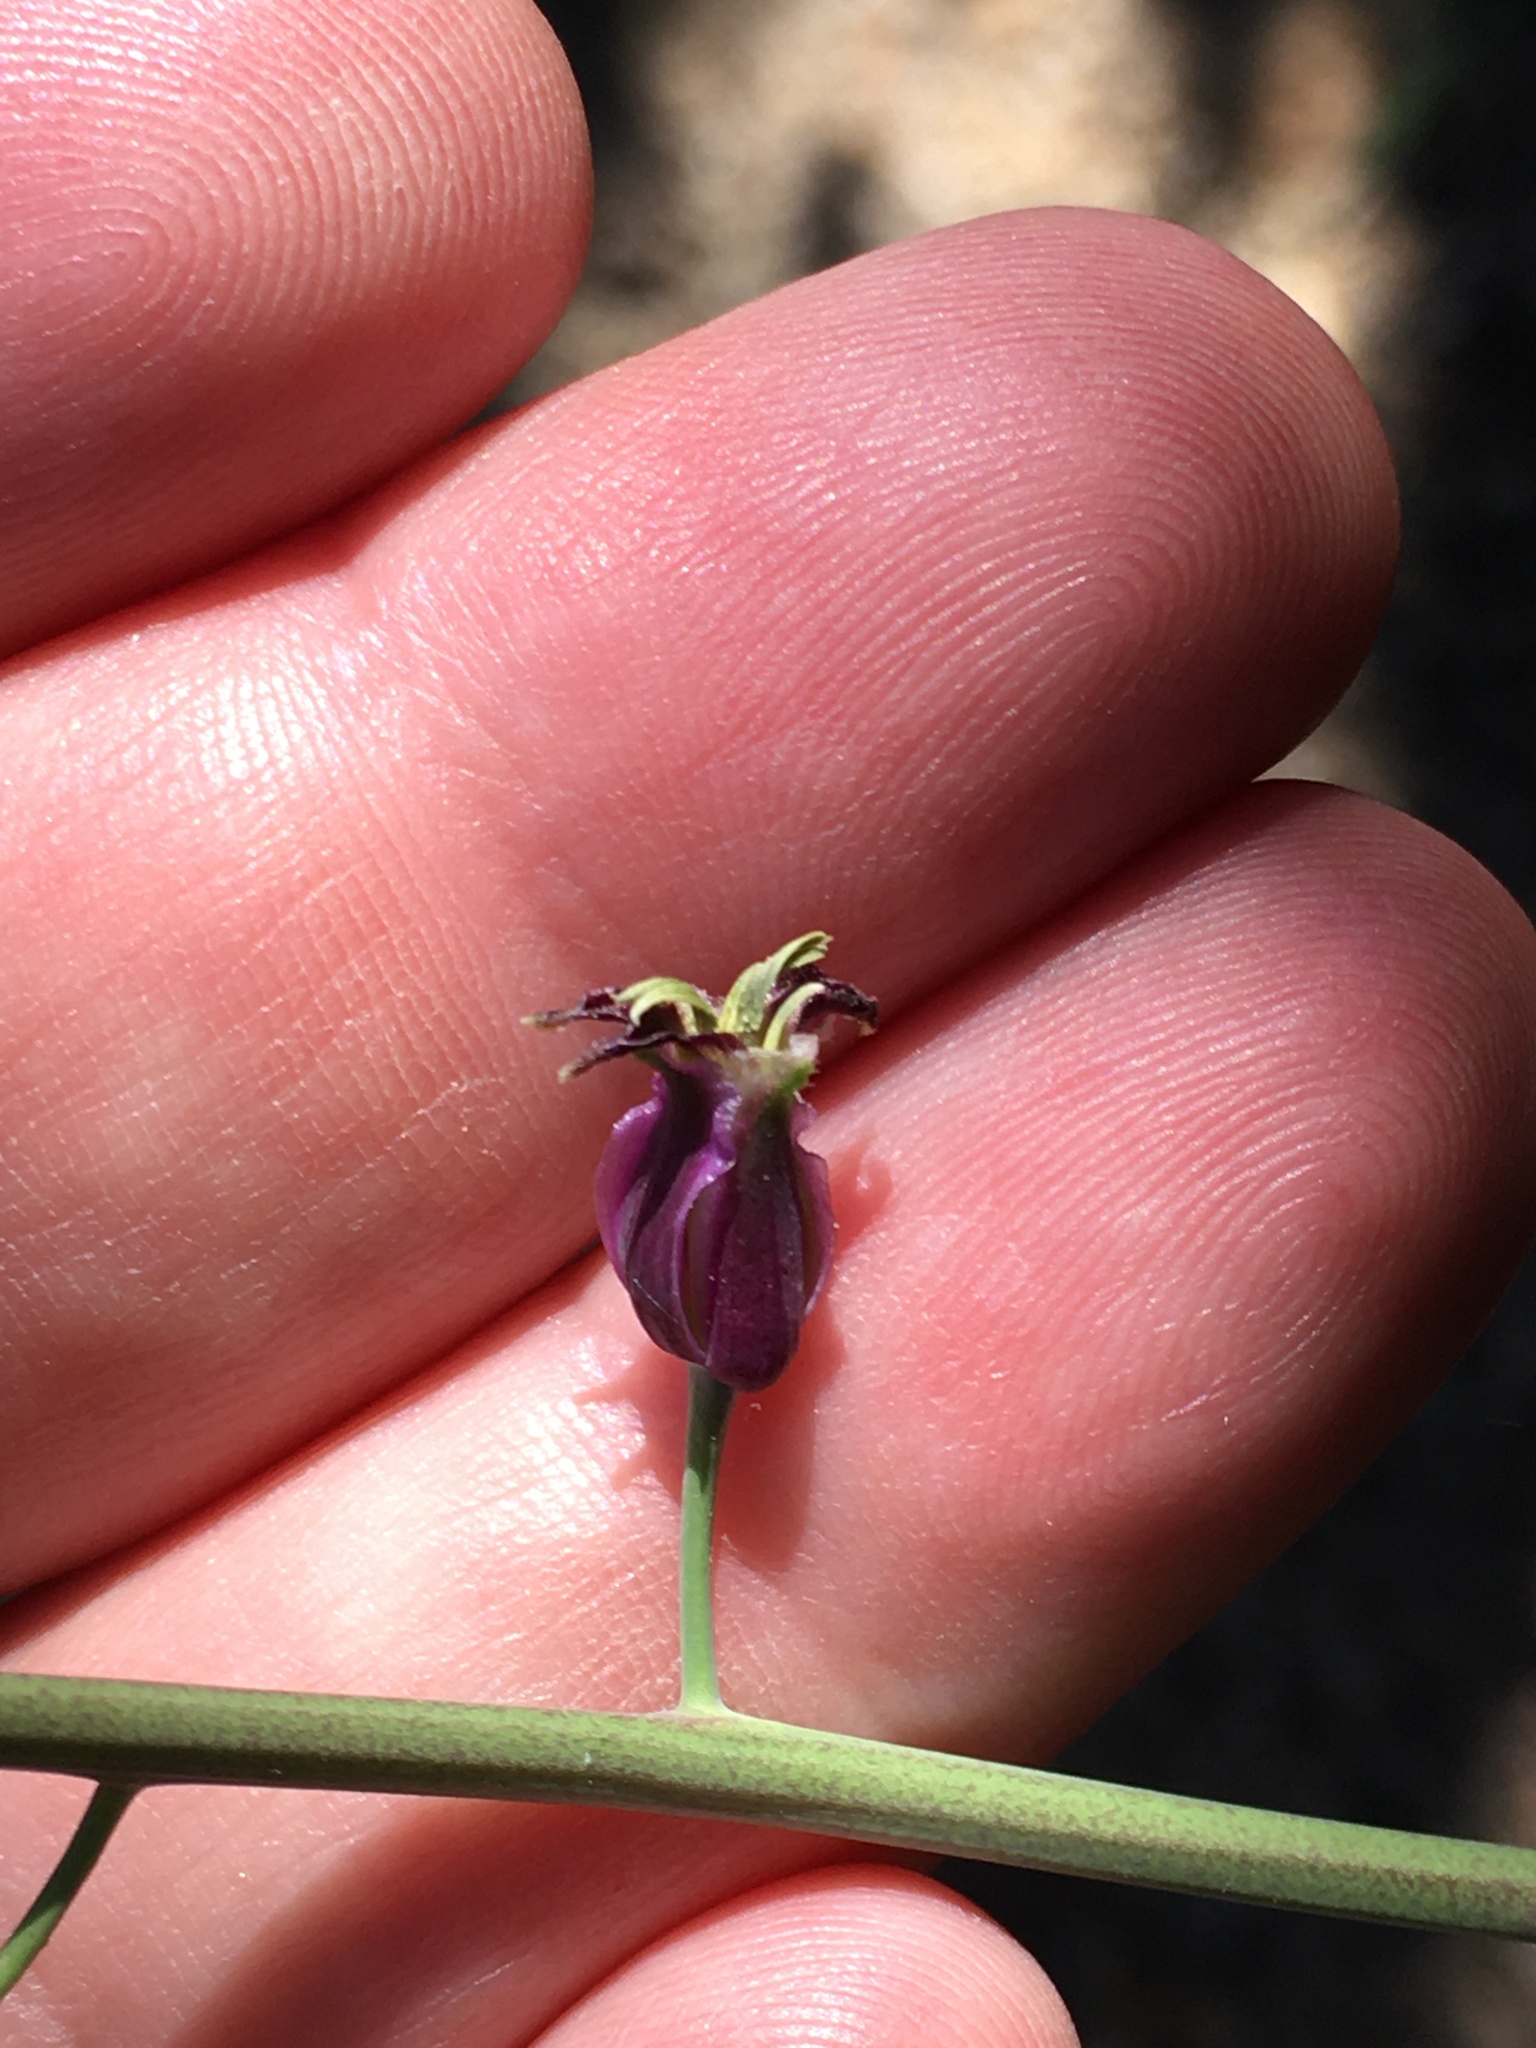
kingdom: Plantae
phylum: Tracheophyta
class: Magnoliopsida
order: Brassicales
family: Brassicaceae
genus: Streptanthus
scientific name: Streptanthus campestris
